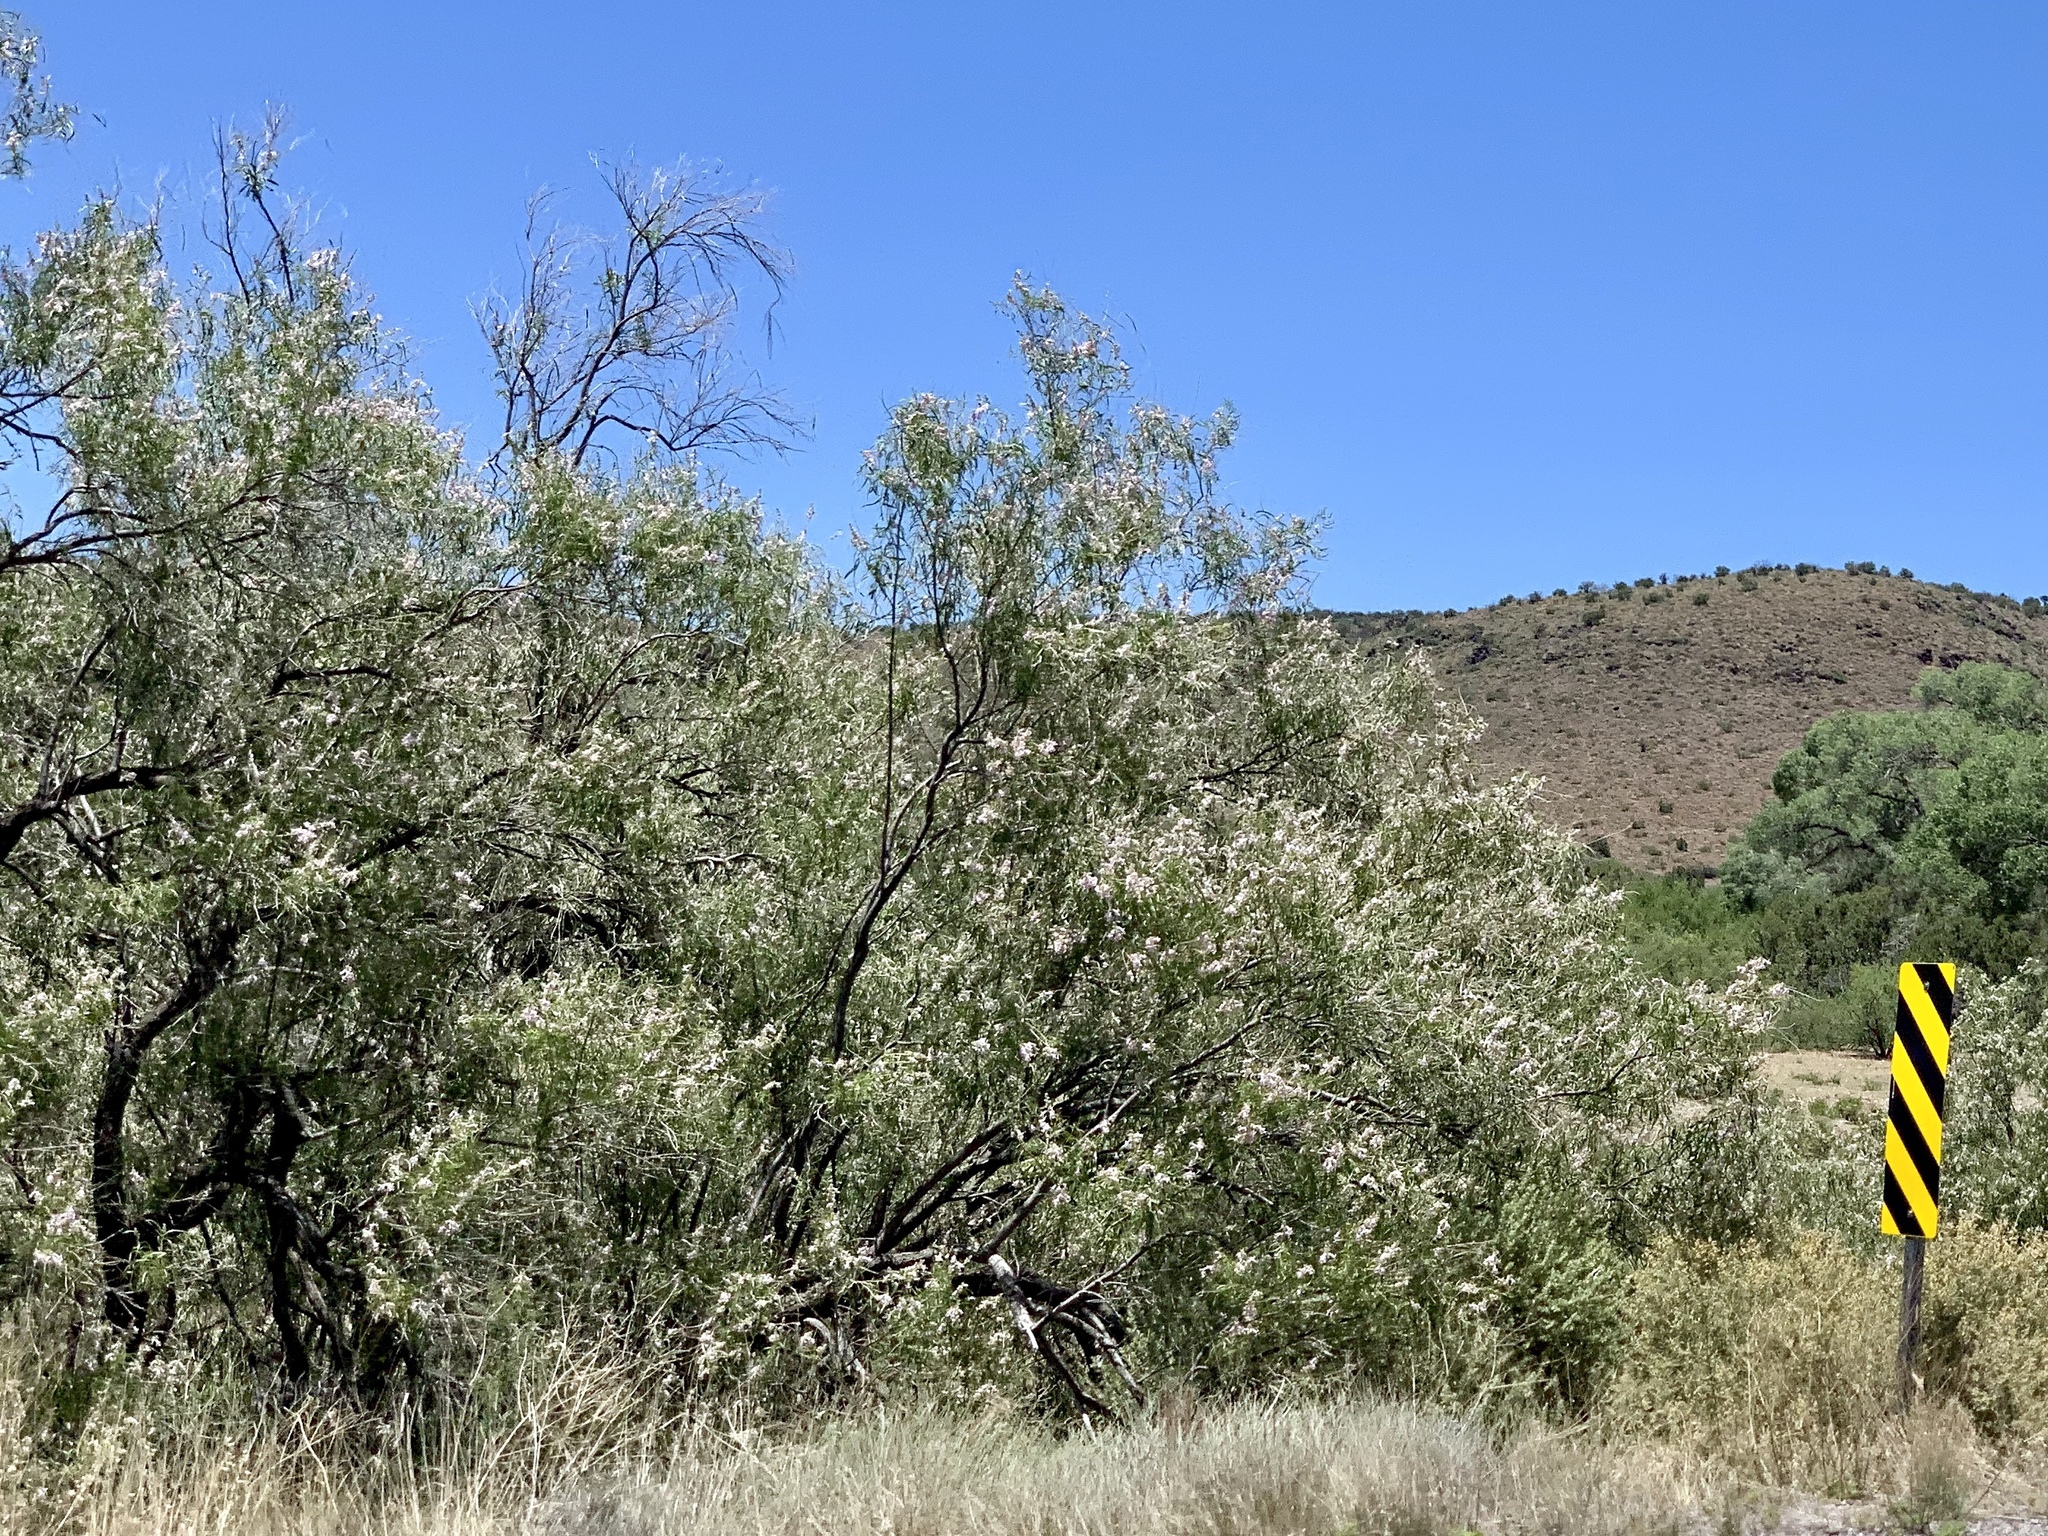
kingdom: Plantae
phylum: Tracheophyta
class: Magnoliopsida
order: Lamiales
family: Bignoniaceae
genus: Chilopsis
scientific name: Chilopsis linearis
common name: Desert-willow
